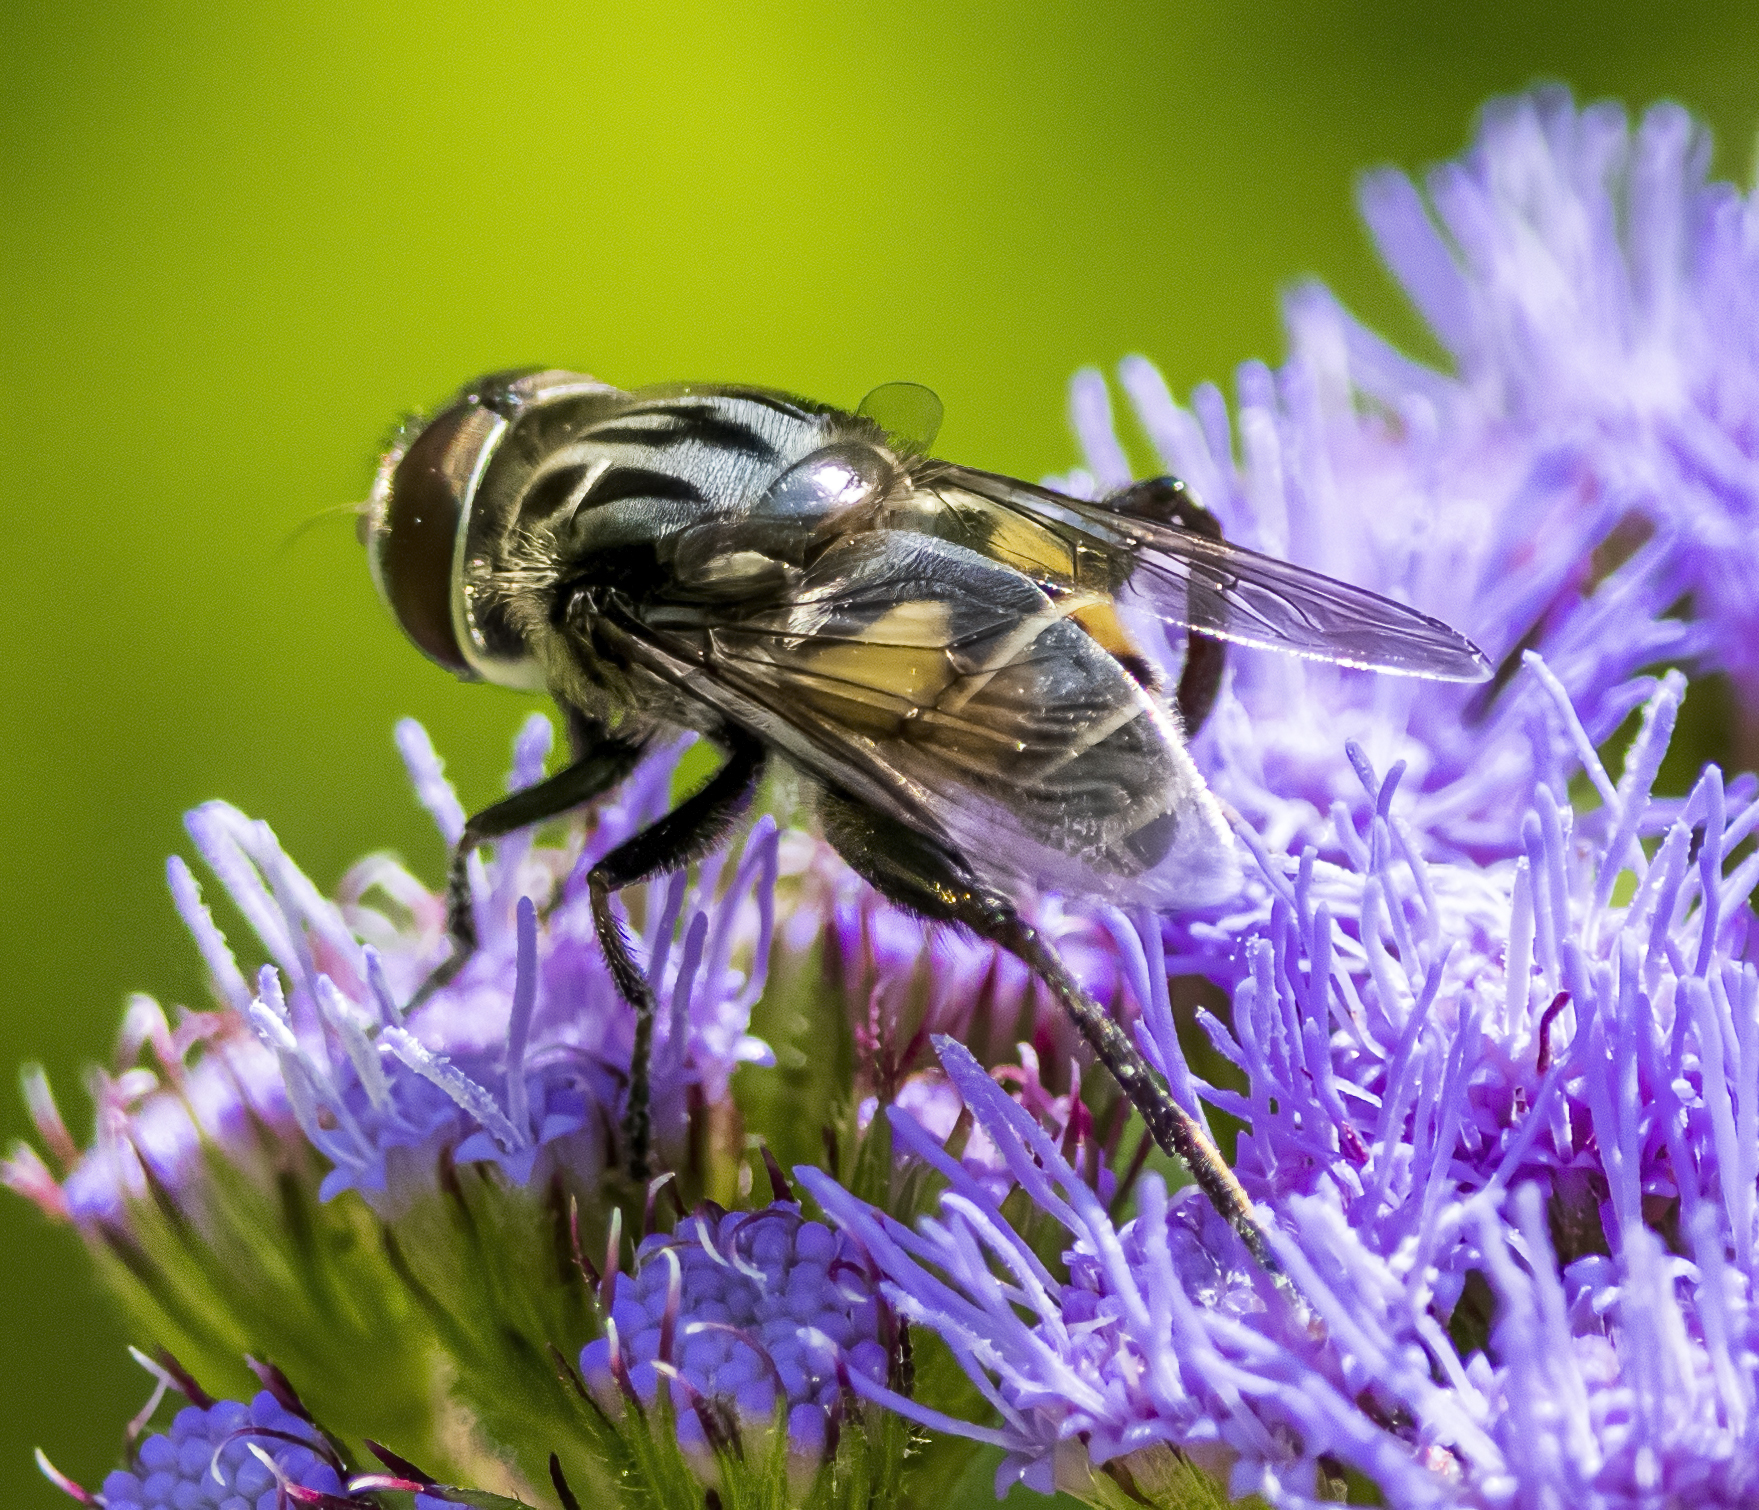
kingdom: Animalia
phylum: Arthropoda
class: Insecta
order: Diptera
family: Syrphidae
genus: Palpada
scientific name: Palpada furcata
